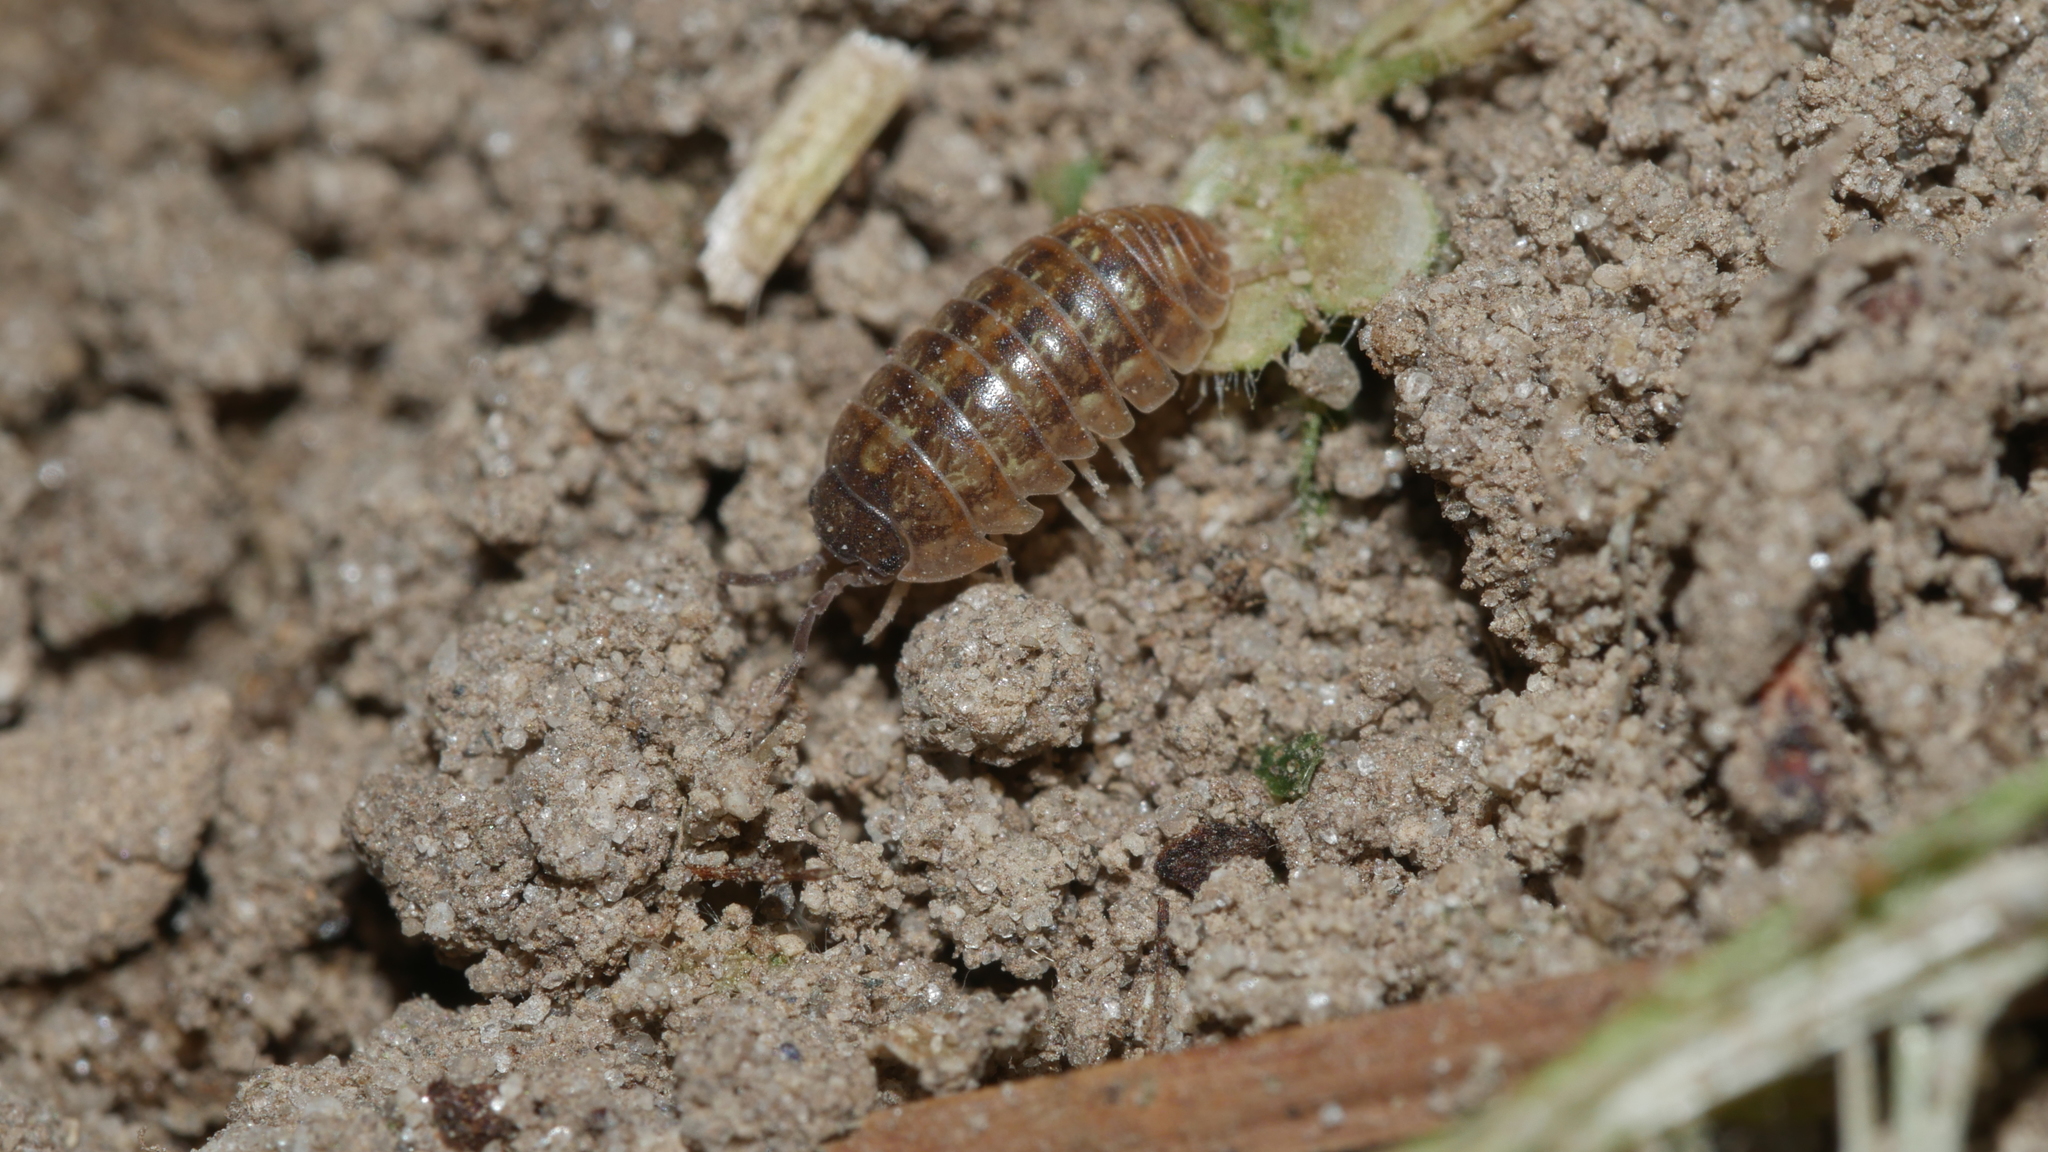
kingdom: Animalia
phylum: Arthropoda
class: Malacostraca
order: Isopoda
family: Armadillidiidae
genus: Armadillidium
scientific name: Armadillidium vulgare
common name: Common pill woodlouse
